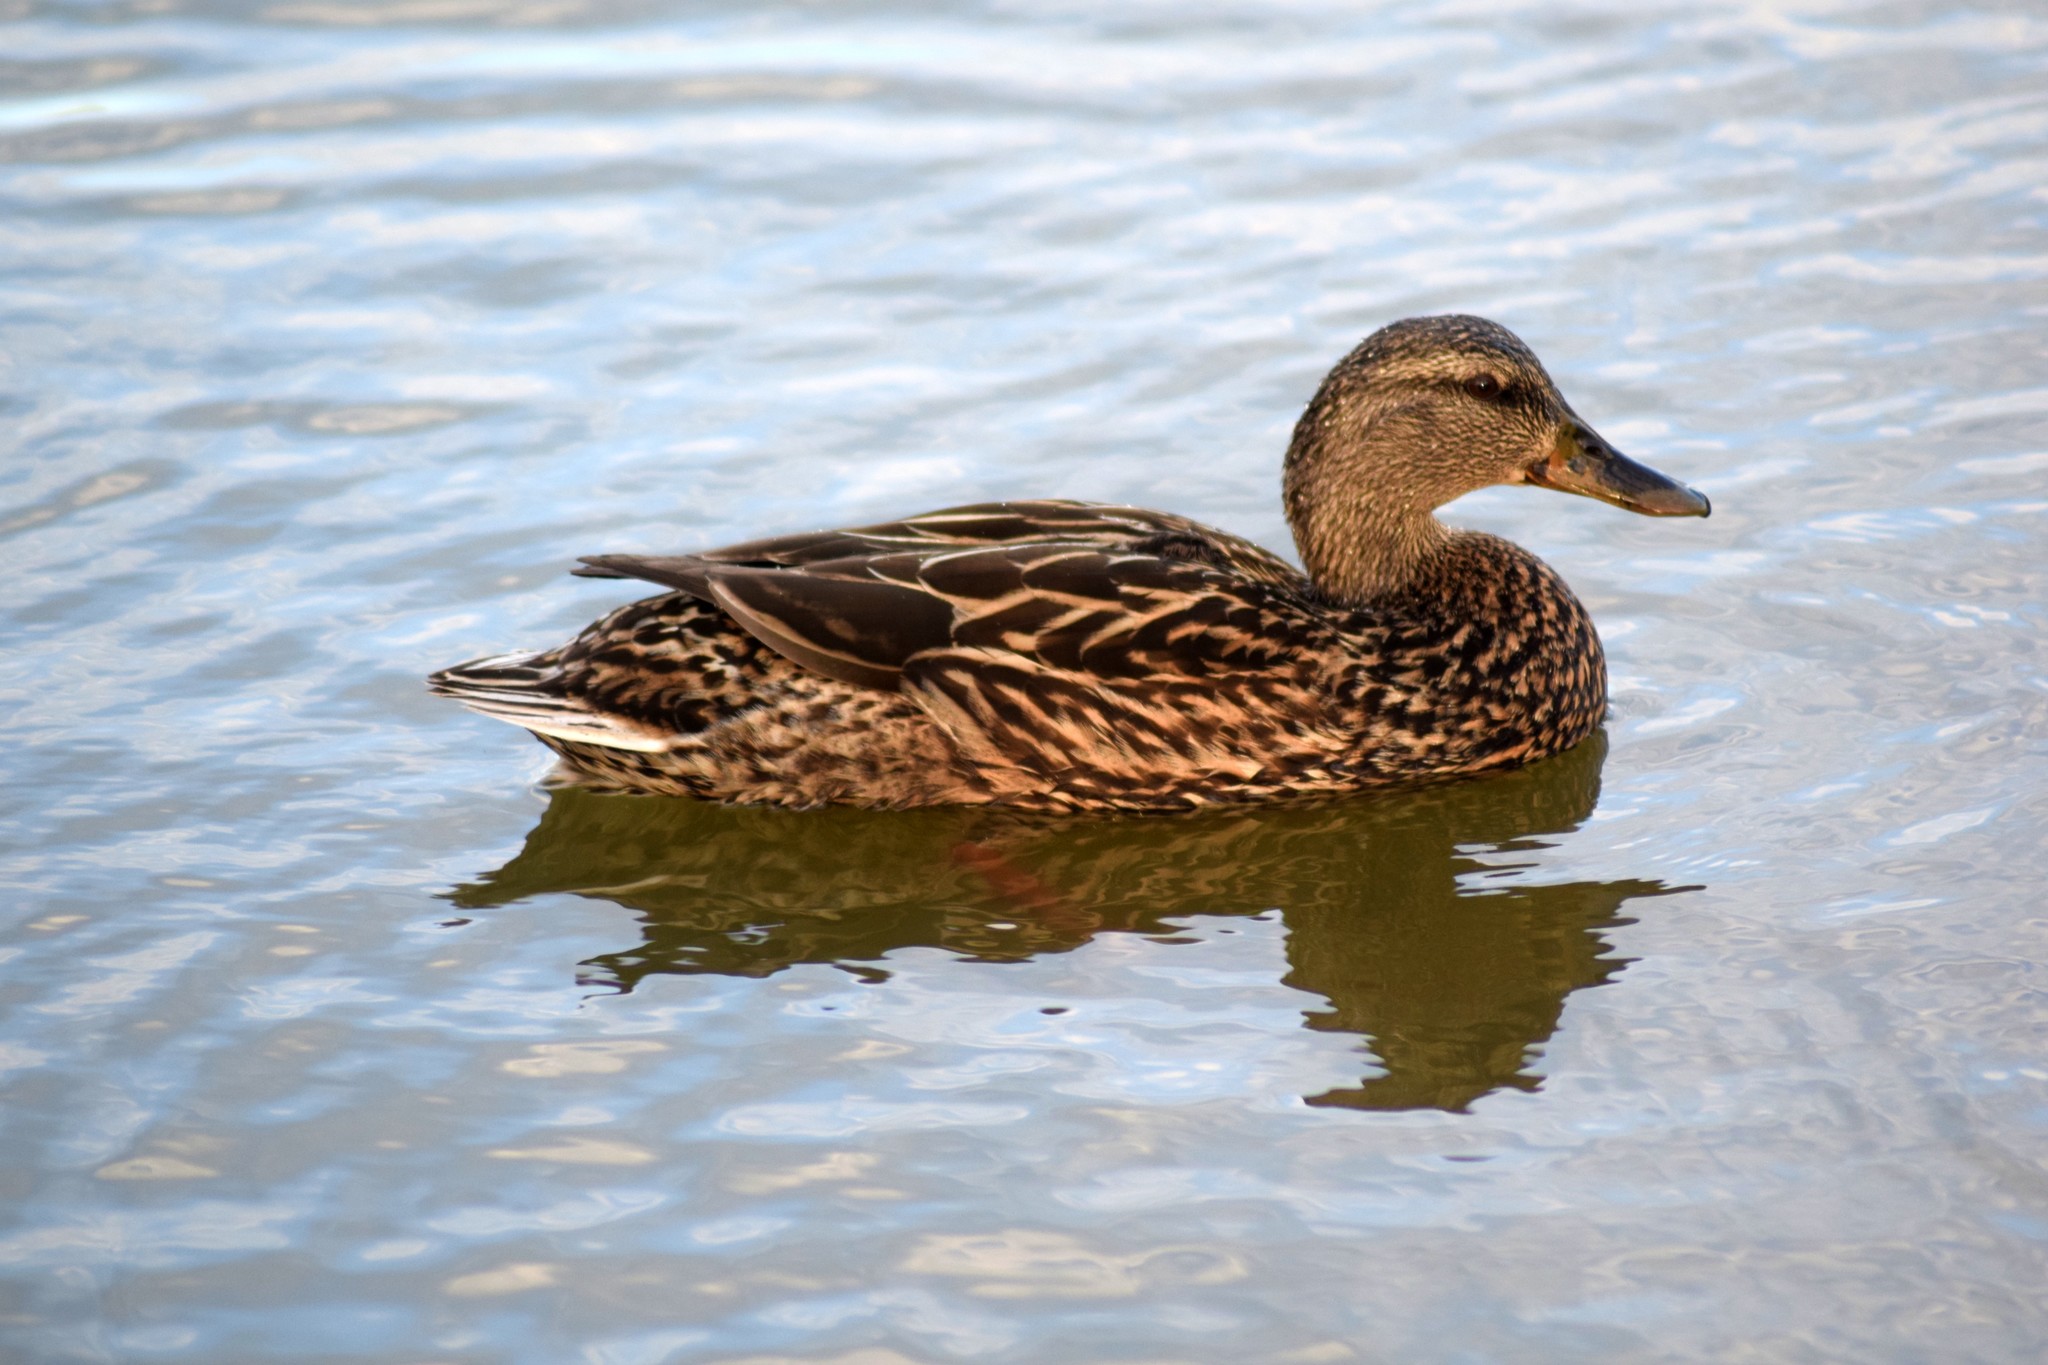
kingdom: Animalia
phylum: Chordata
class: Aves
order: Anseriformes
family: Anatidae
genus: Anas
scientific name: Anas platyrhynchos
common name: Mallard
